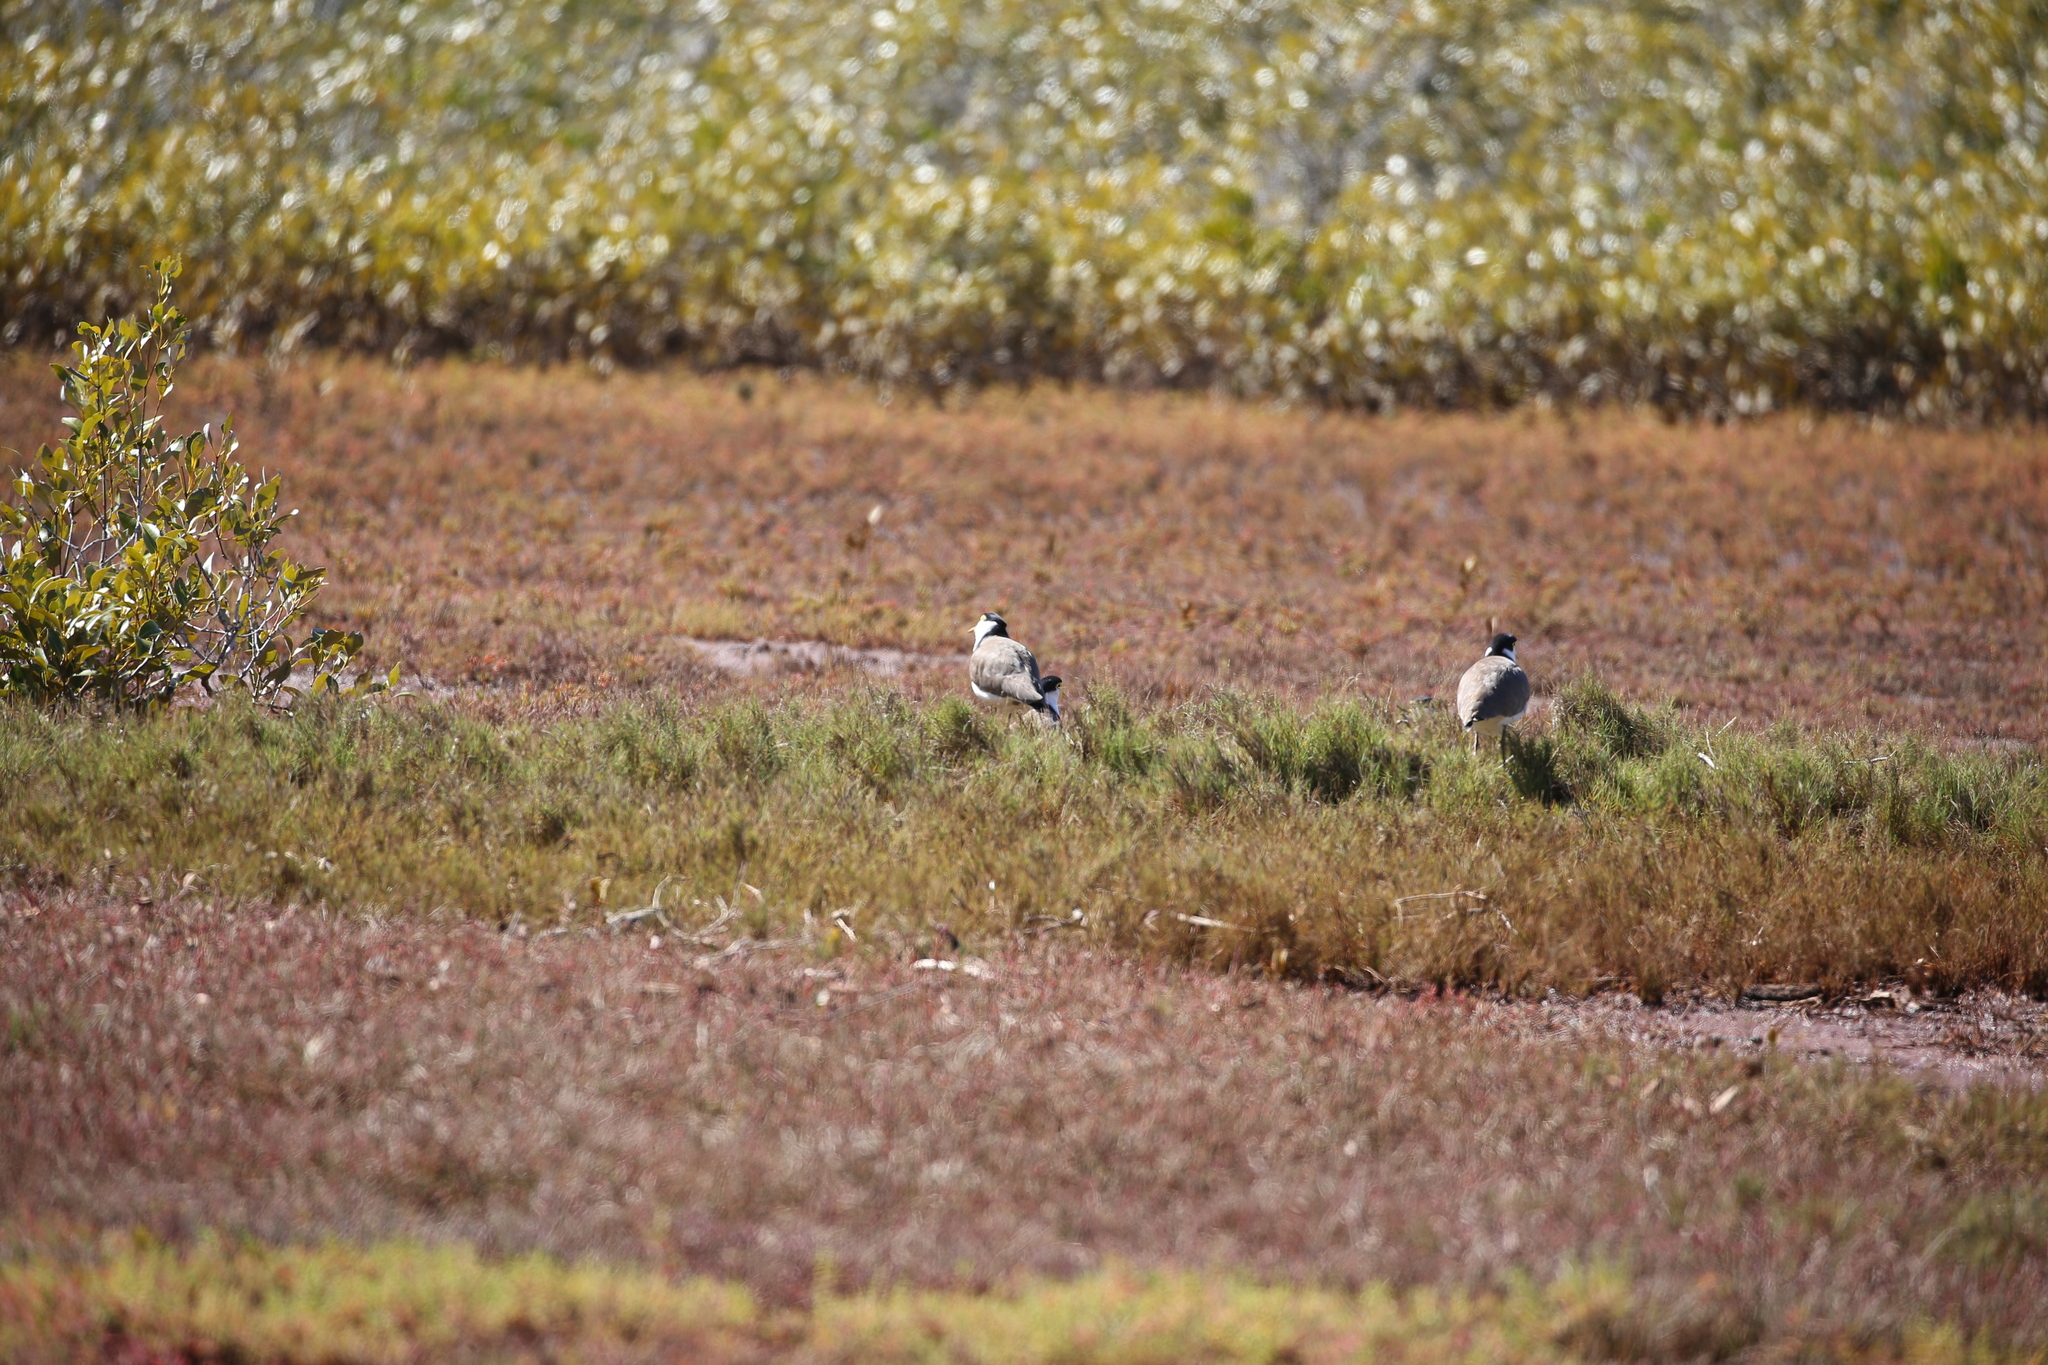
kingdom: Animalia
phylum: Chordata
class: Aves
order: Charadriiformes
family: Charadriidae
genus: Vanellus
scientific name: Vanellus miles
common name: Masked lapwing
